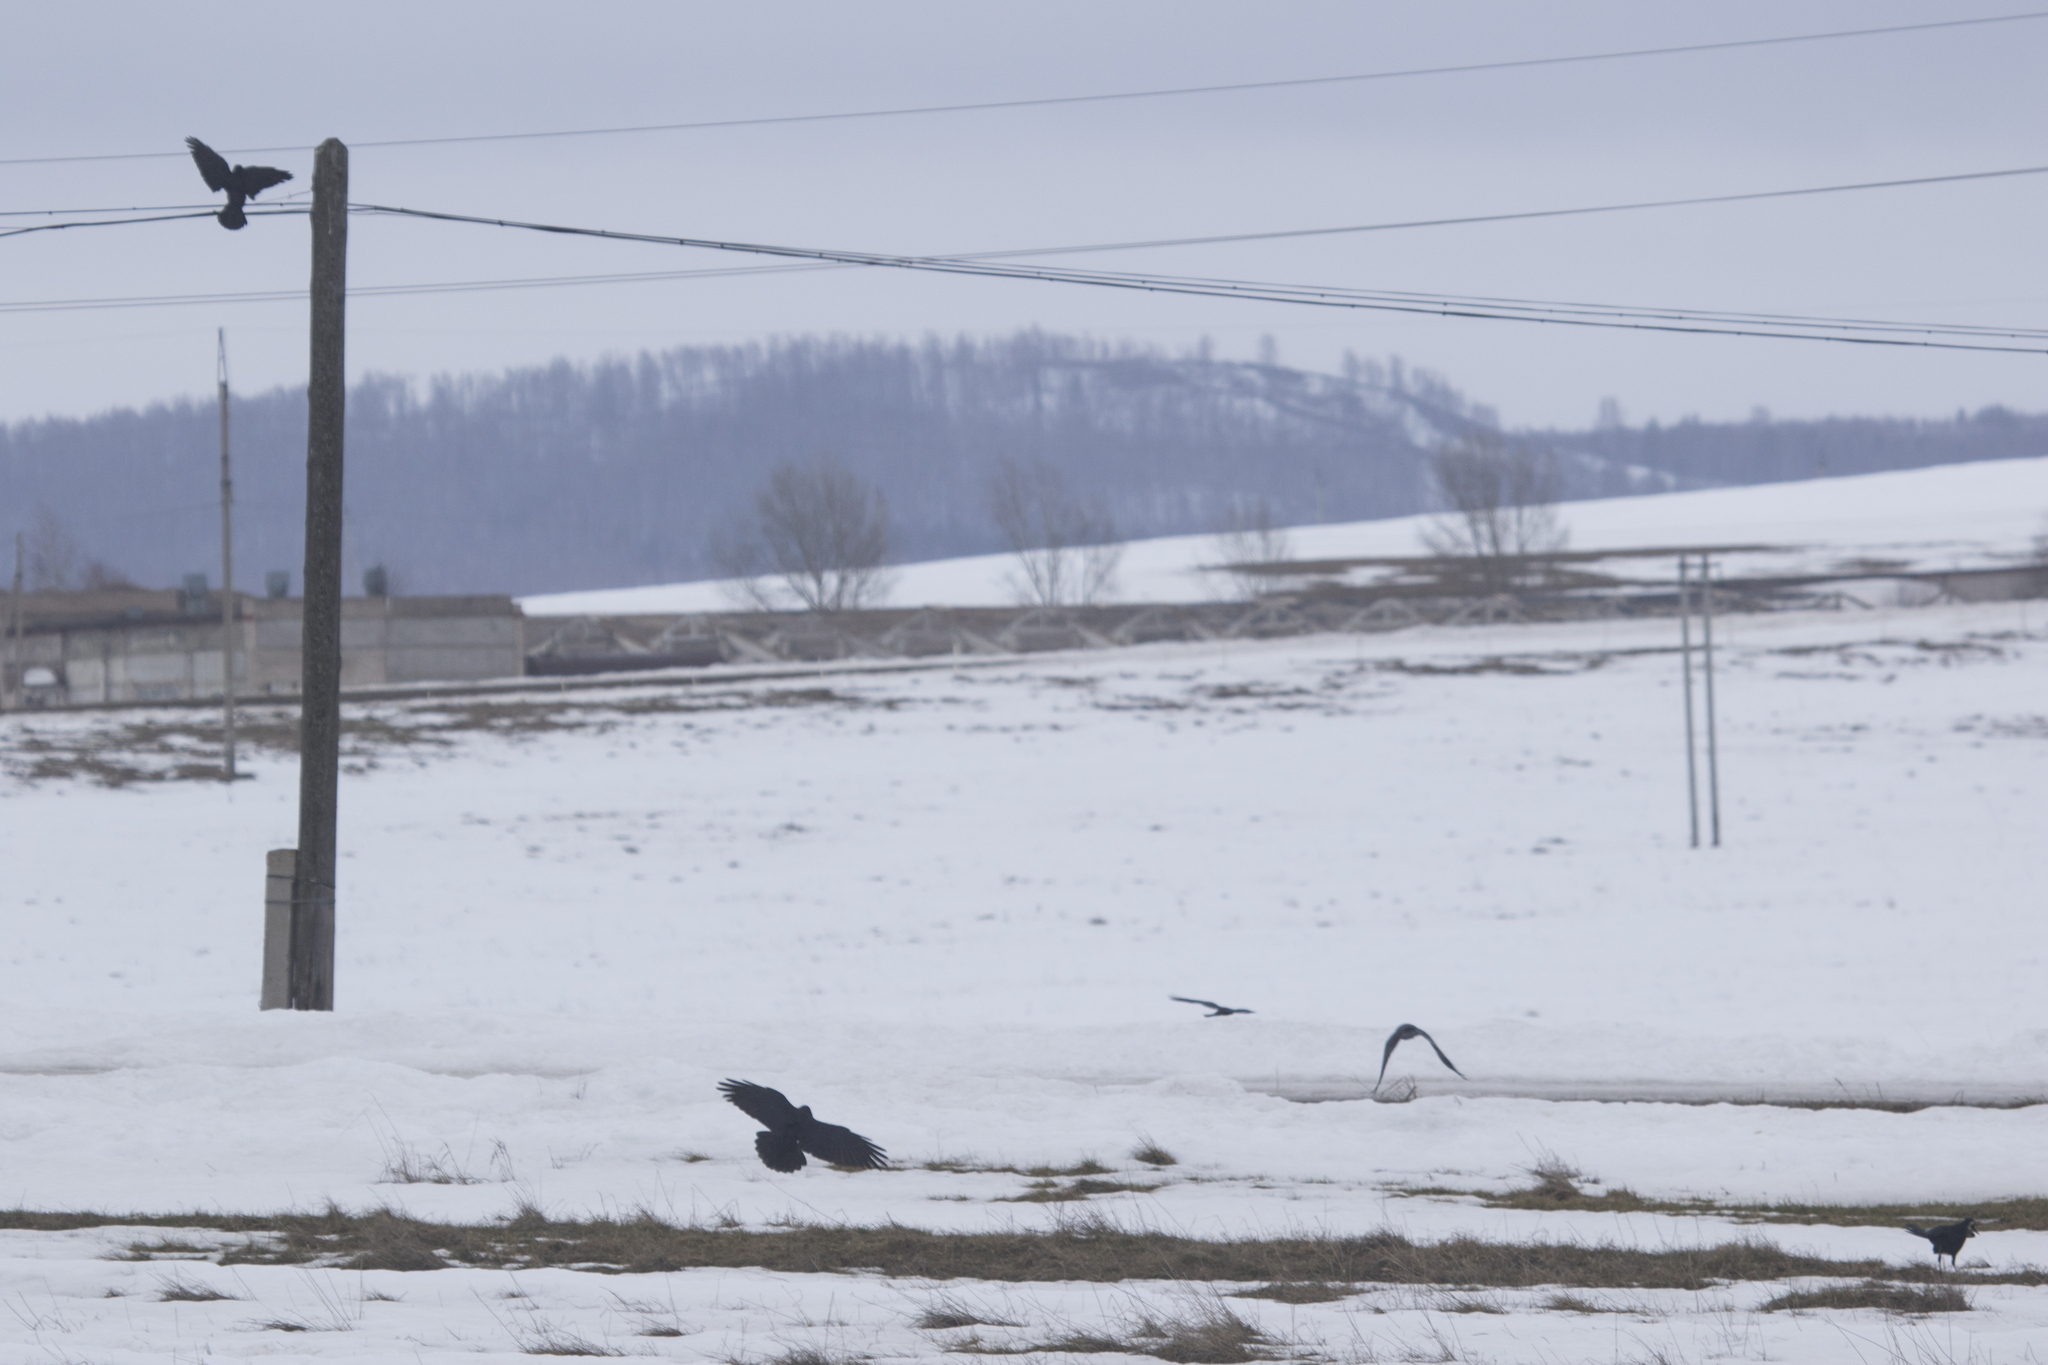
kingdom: Animalia
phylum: Chordata
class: Aves
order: Passeriformes
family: Corvidae
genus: Corvus
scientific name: Corvus frugilegus
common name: Rook
